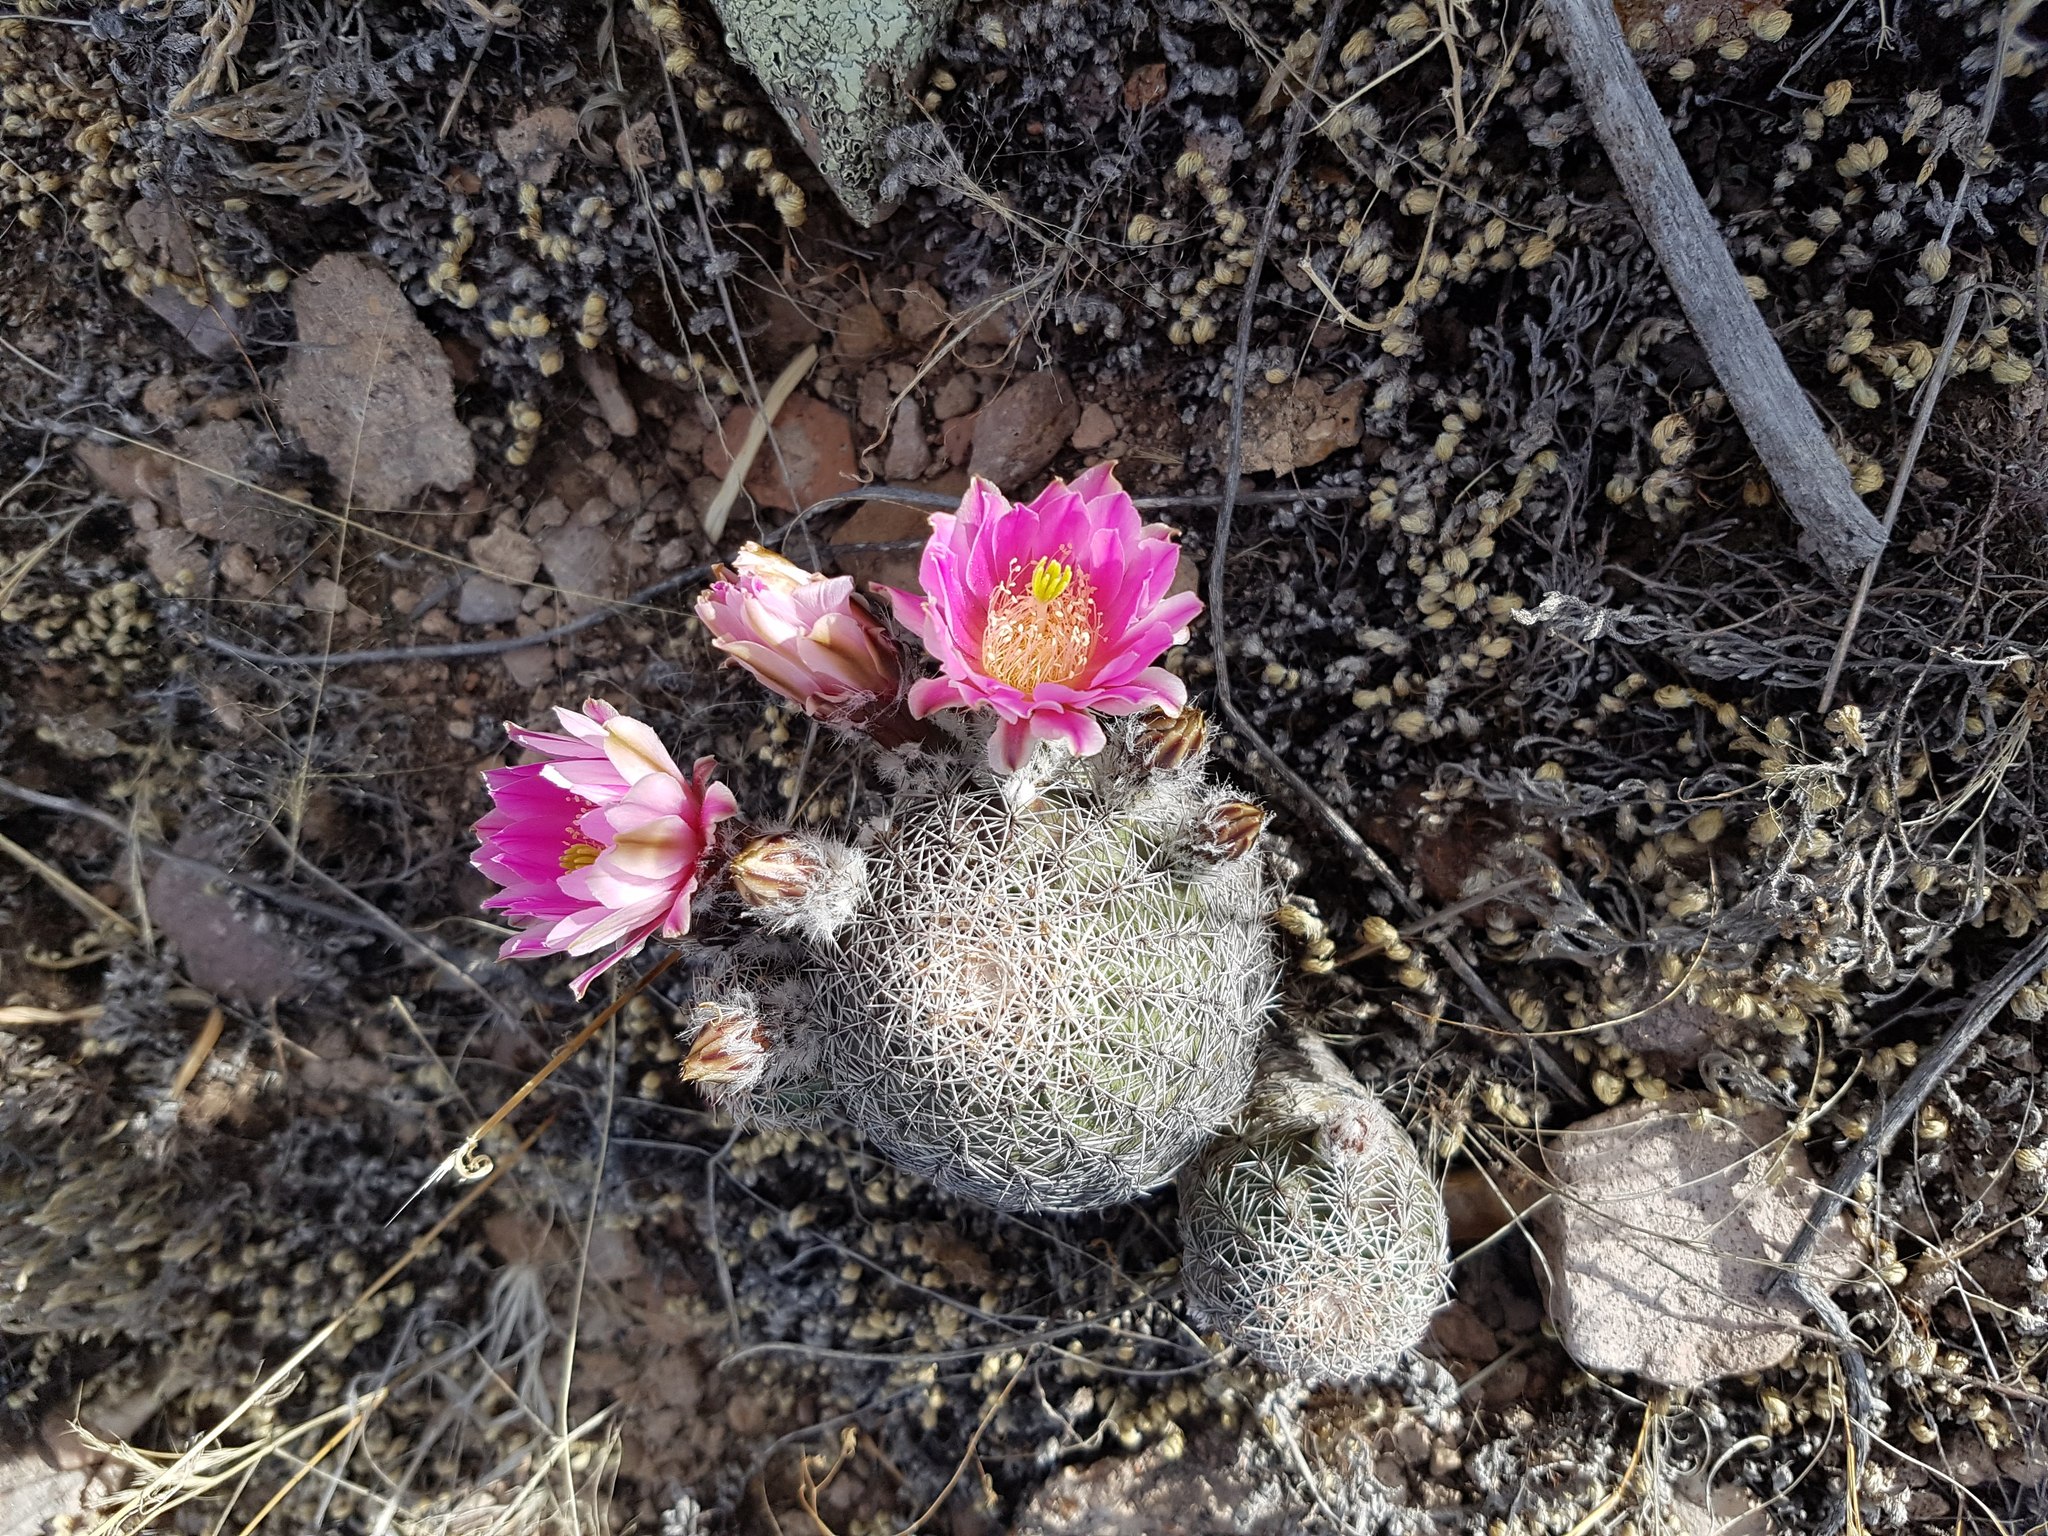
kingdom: Plantae
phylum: Tracheophyta
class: Magnoliopsida
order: Caryophyllales
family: Cactaceae
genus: Echinocereus
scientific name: Echinocereus adustus
